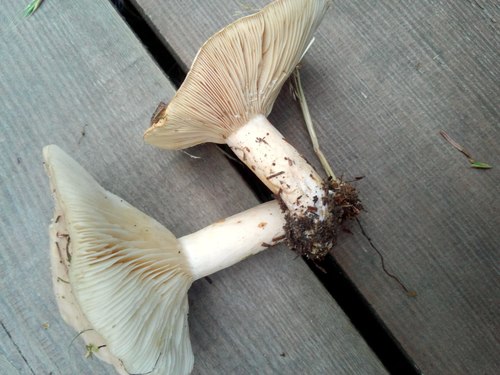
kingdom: Fungi
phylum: Basidiomycota
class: Agaricomycetes
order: Russulales
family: Russulaceae
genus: Lactarius
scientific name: Lactarius vietus
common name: Grey milk-cap
